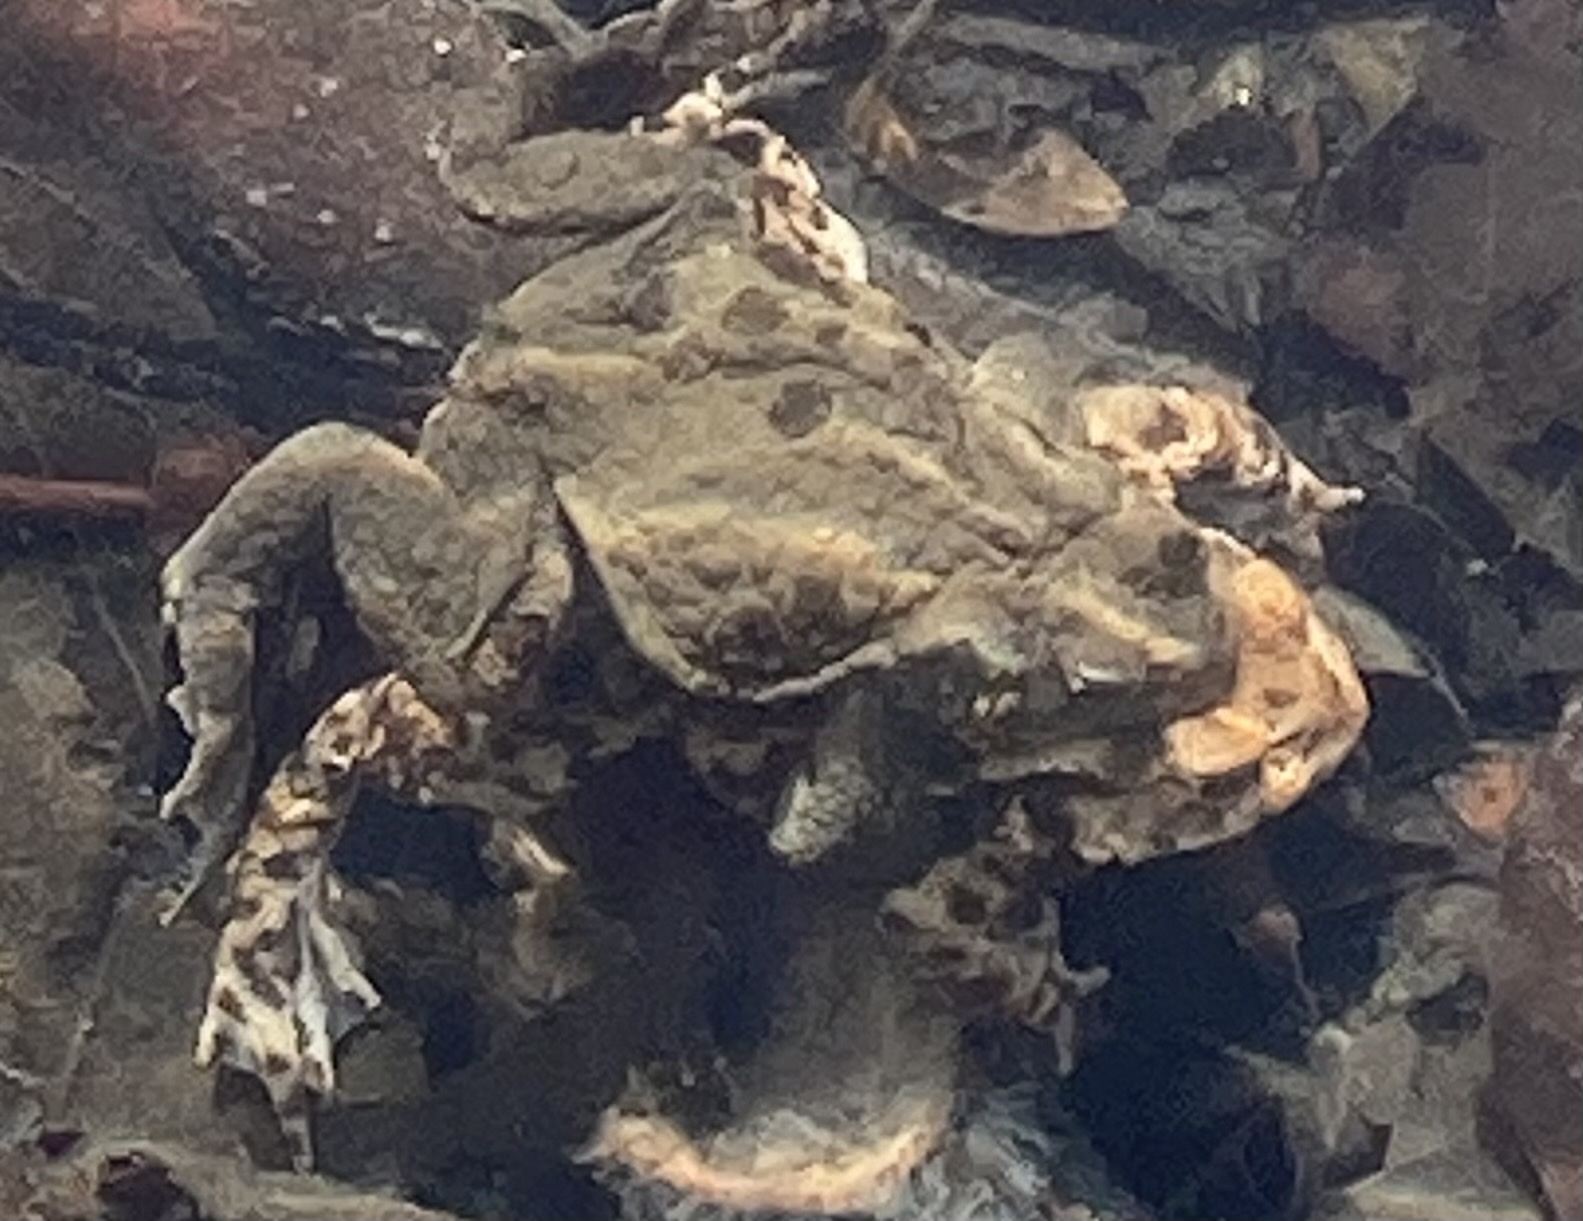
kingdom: Animalia
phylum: Chordata
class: Amphibia
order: Anura
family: Bufonidae
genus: Bufo
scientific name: Bufo bufo
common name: Common toad
